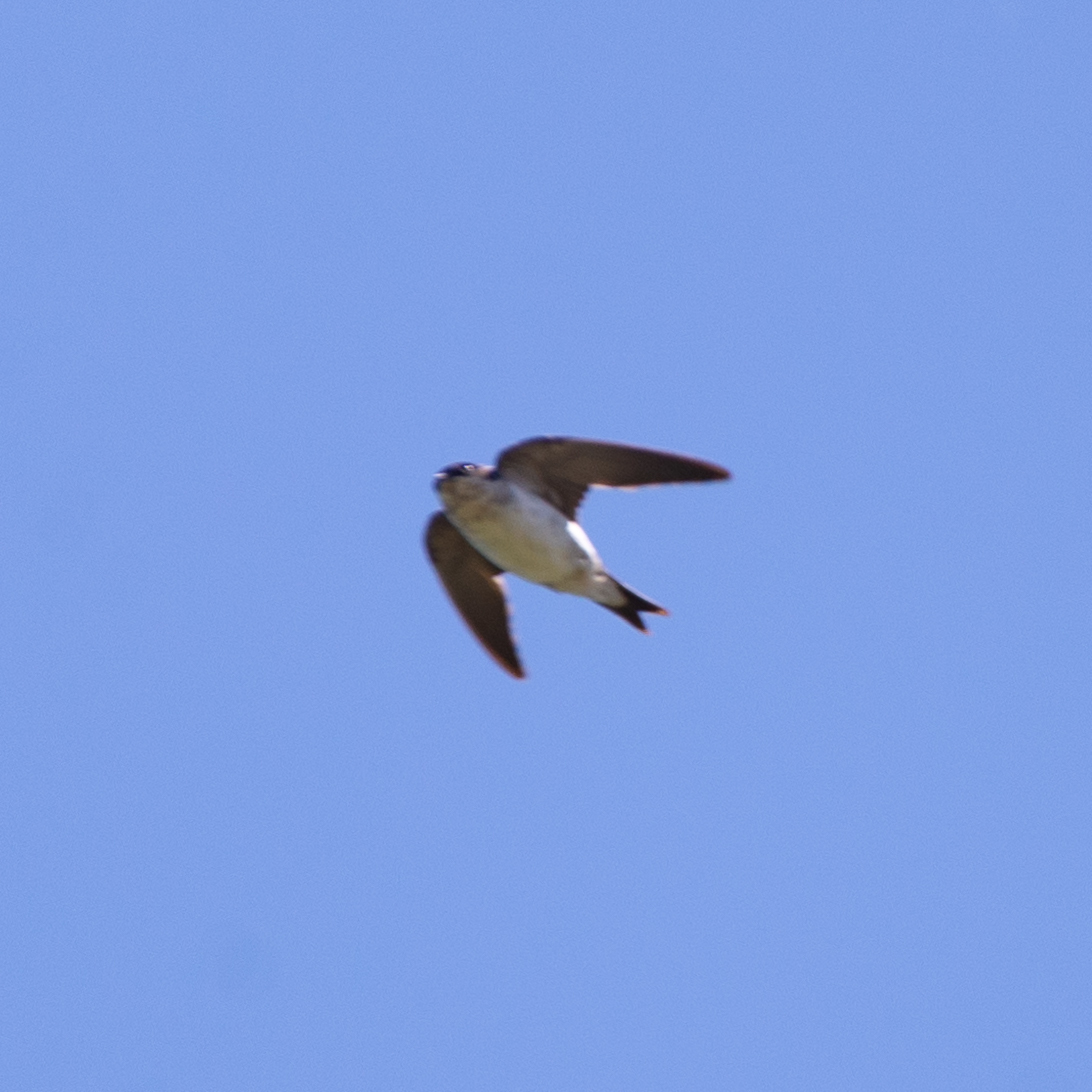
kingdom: Animalia
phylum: Chordata
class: Aves
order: Passeriformes
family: Hirundinidae
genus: Delichon
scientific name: Delichon urbicum
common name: Common house martin
